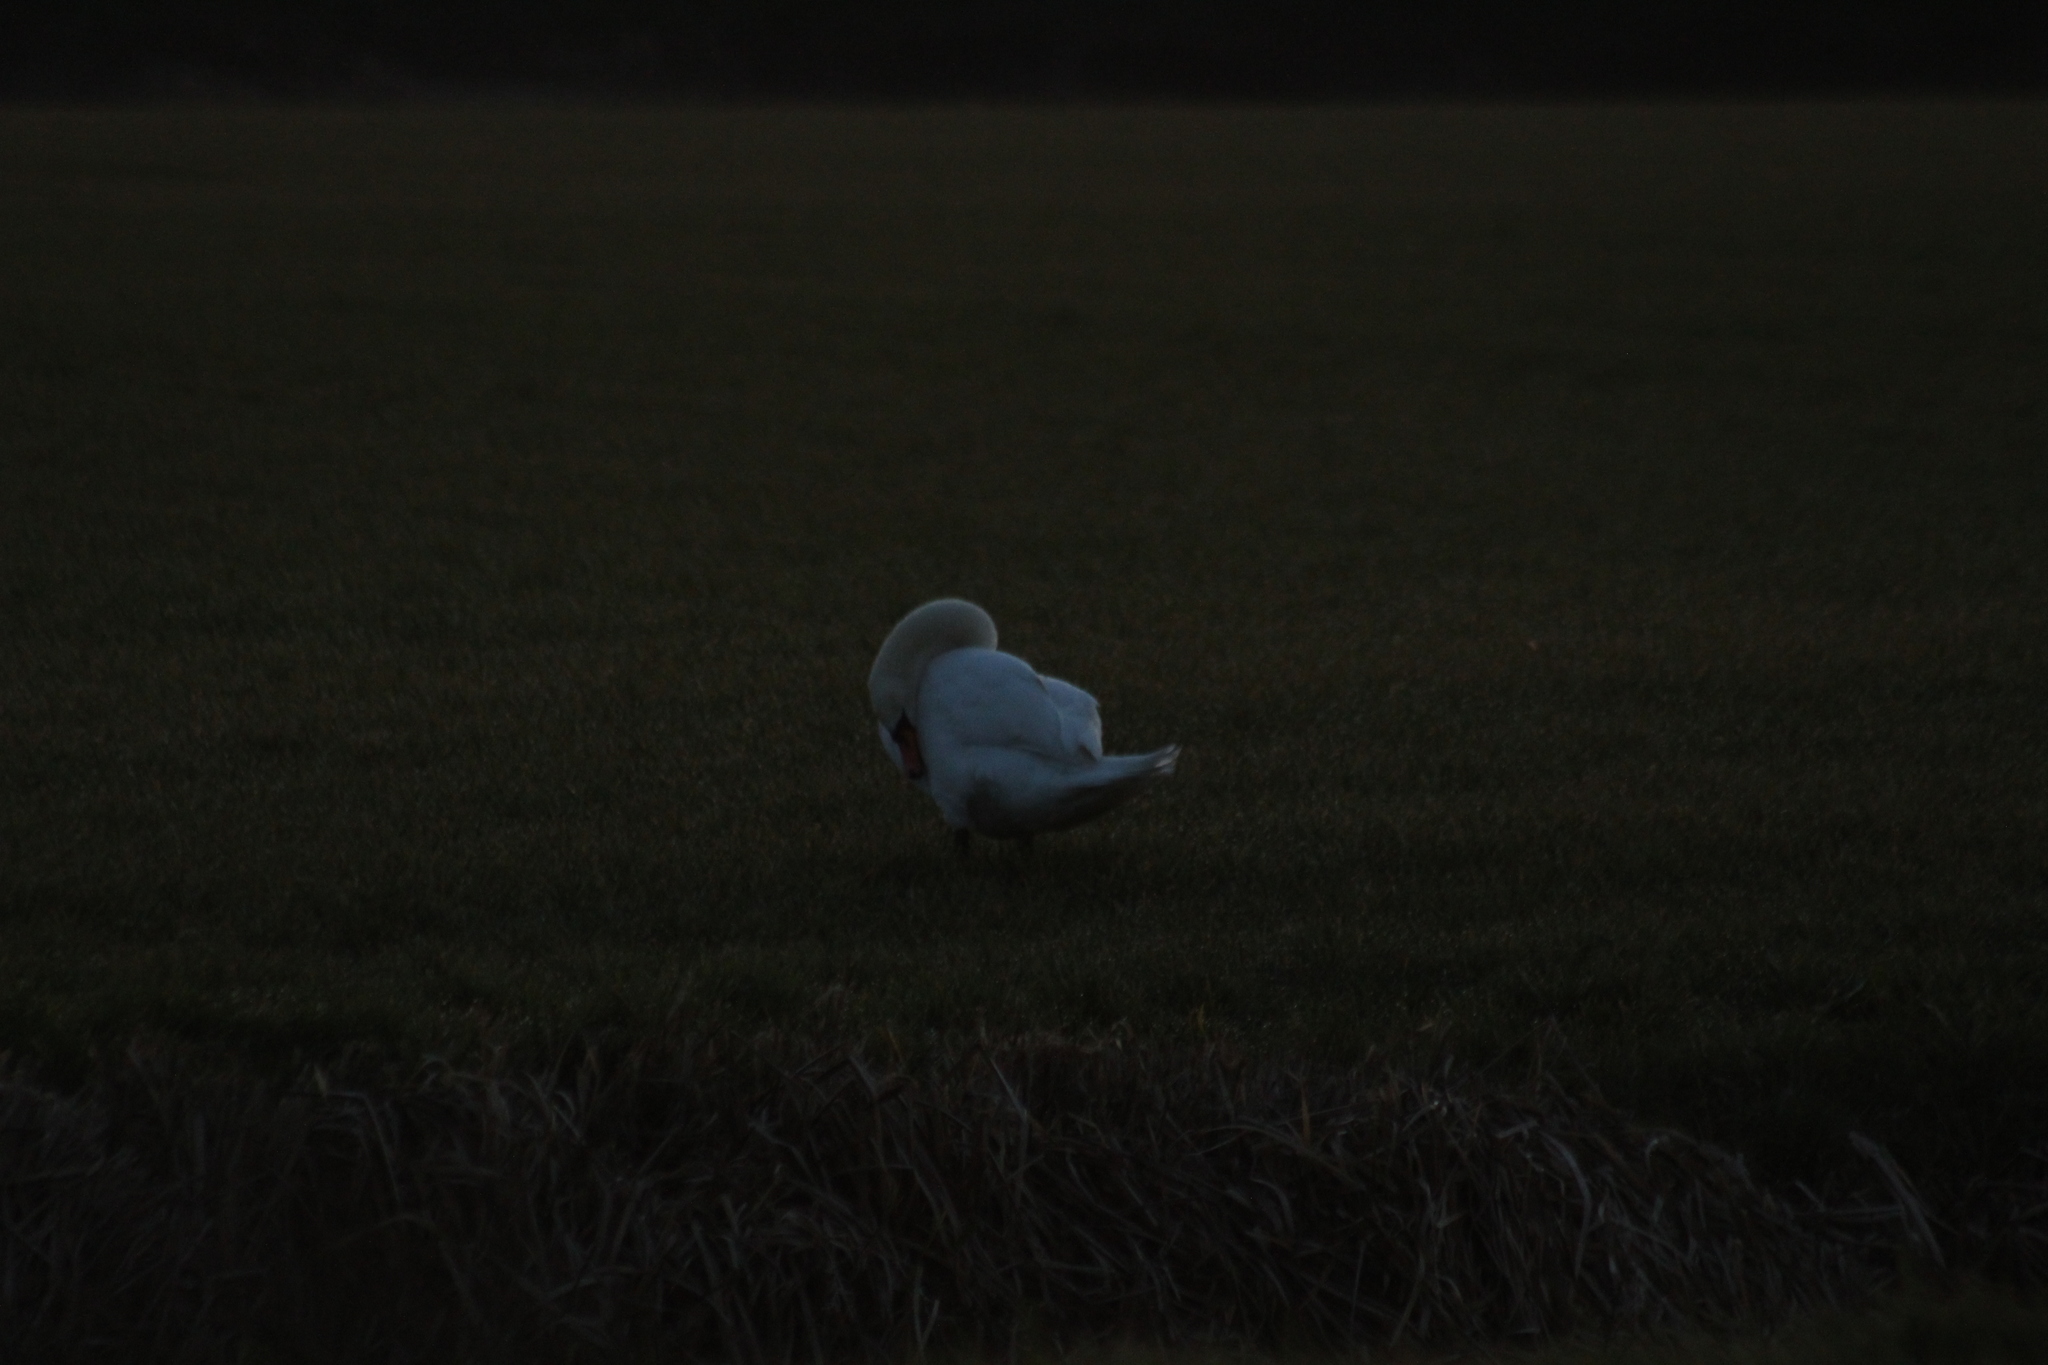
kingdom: Animalia
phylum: Chordata
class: Aves
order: Anseriformes
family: Anatidae
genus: Cygnus
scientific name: Cygnus olor
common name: Mute swan
